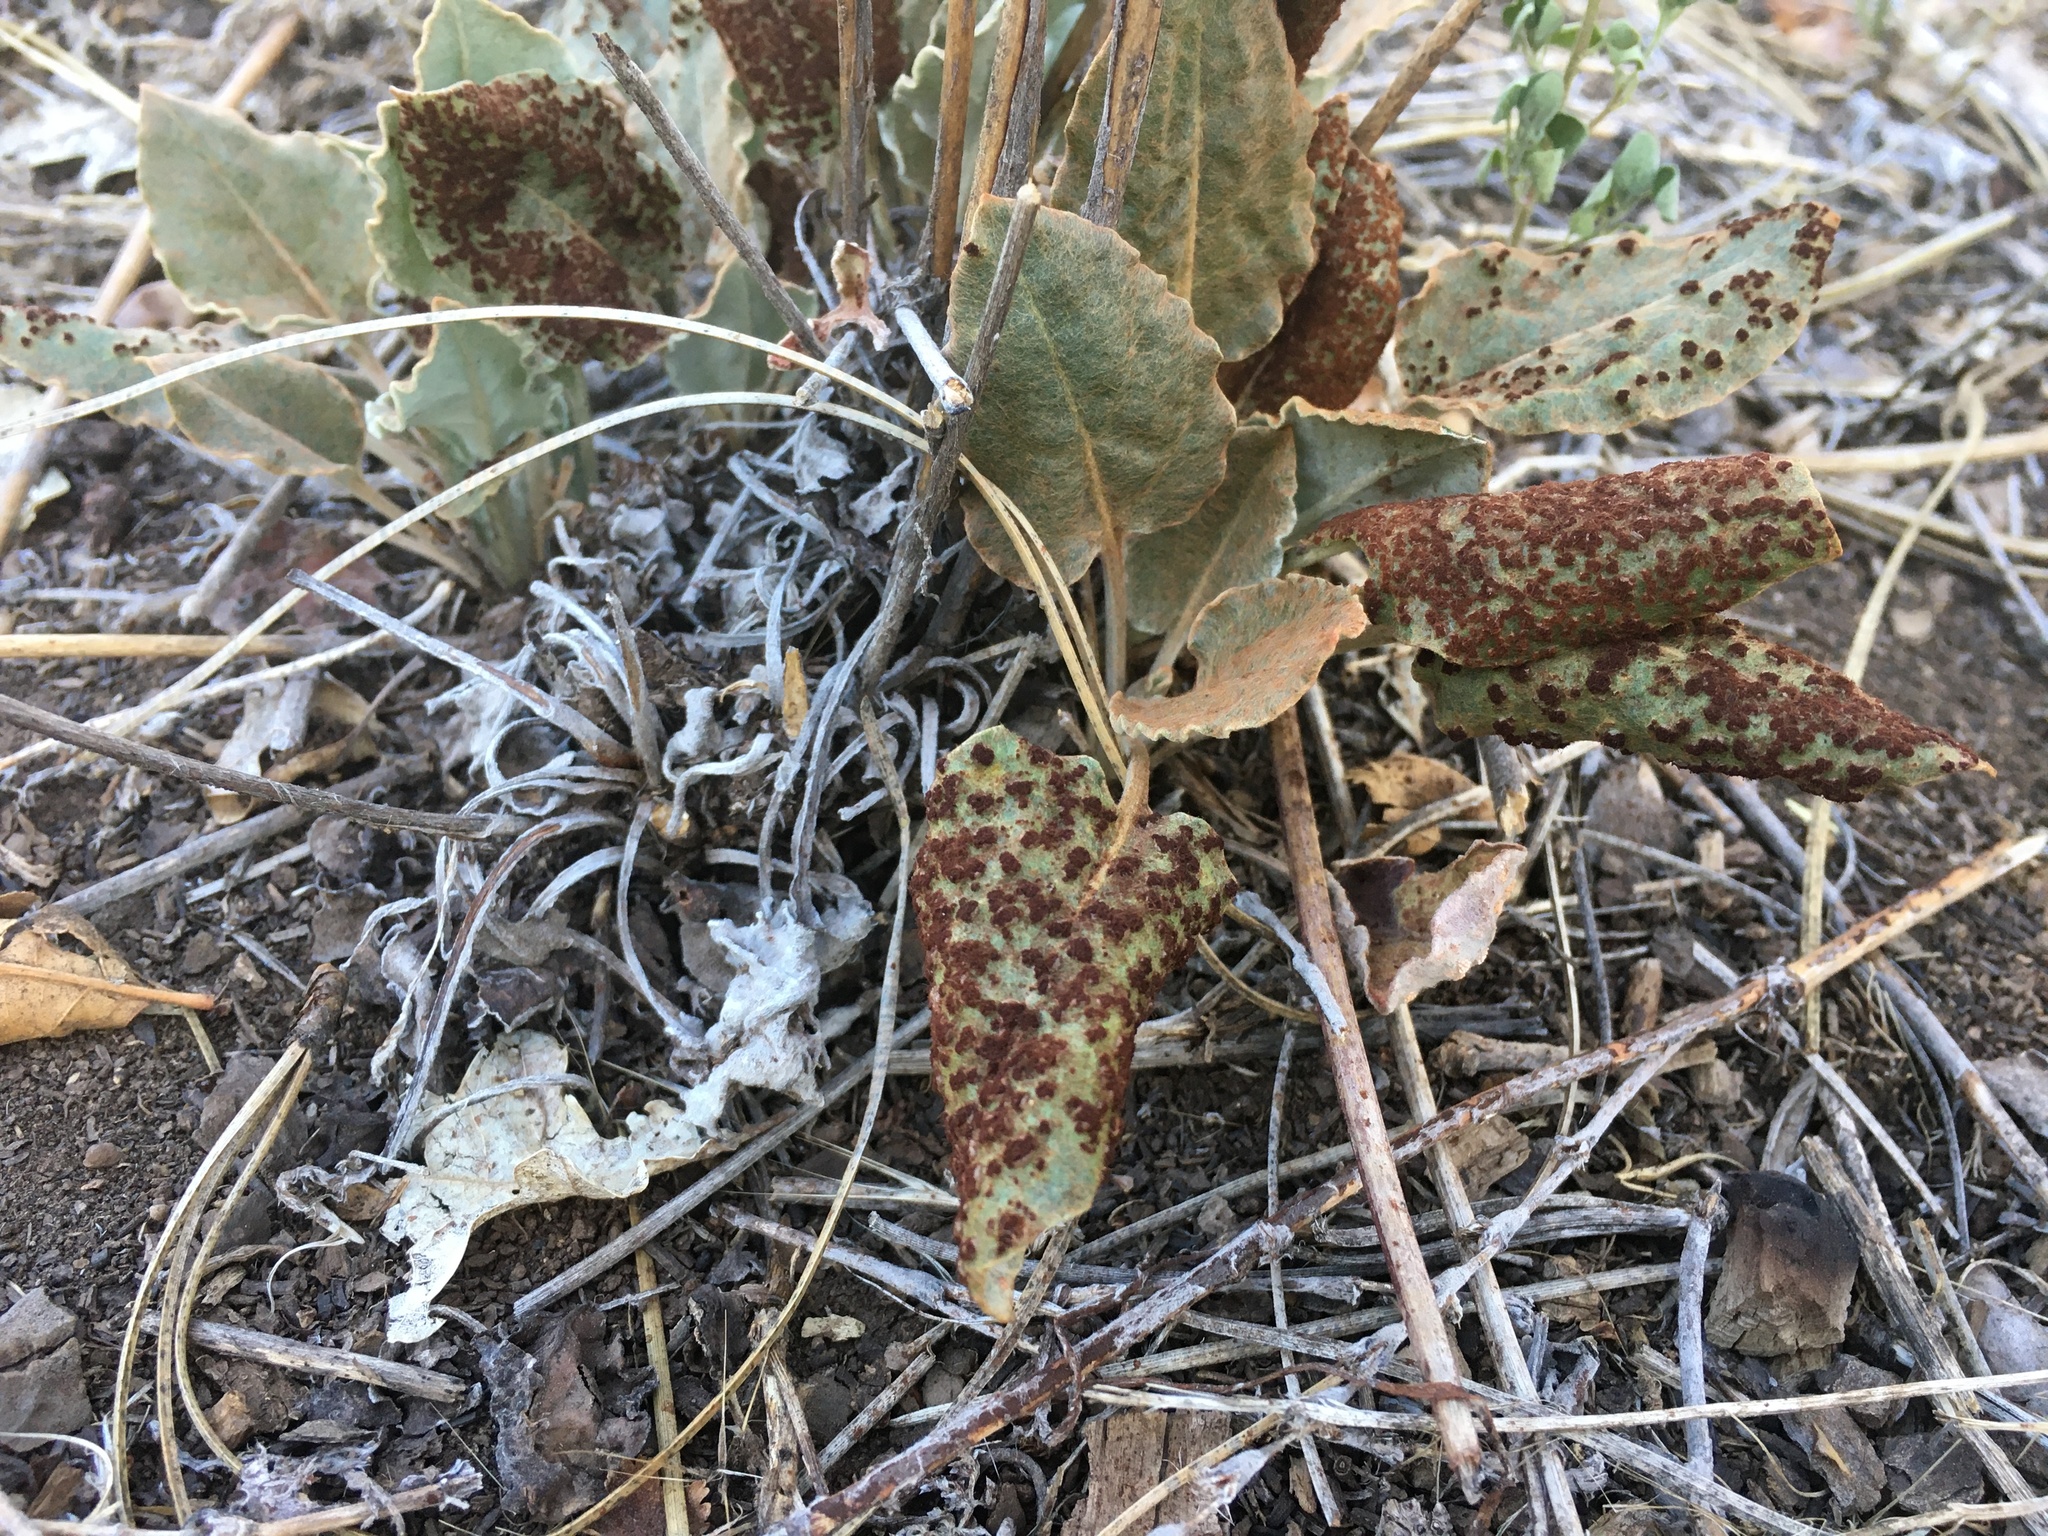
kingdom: Plantae
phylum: Tracheophyta
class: Magnoliopsida
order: Caryophyllales
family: Polygonaceae
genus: Eriogonum
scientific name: Eriogonum racemosum
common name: Redroot wild buckwheat
